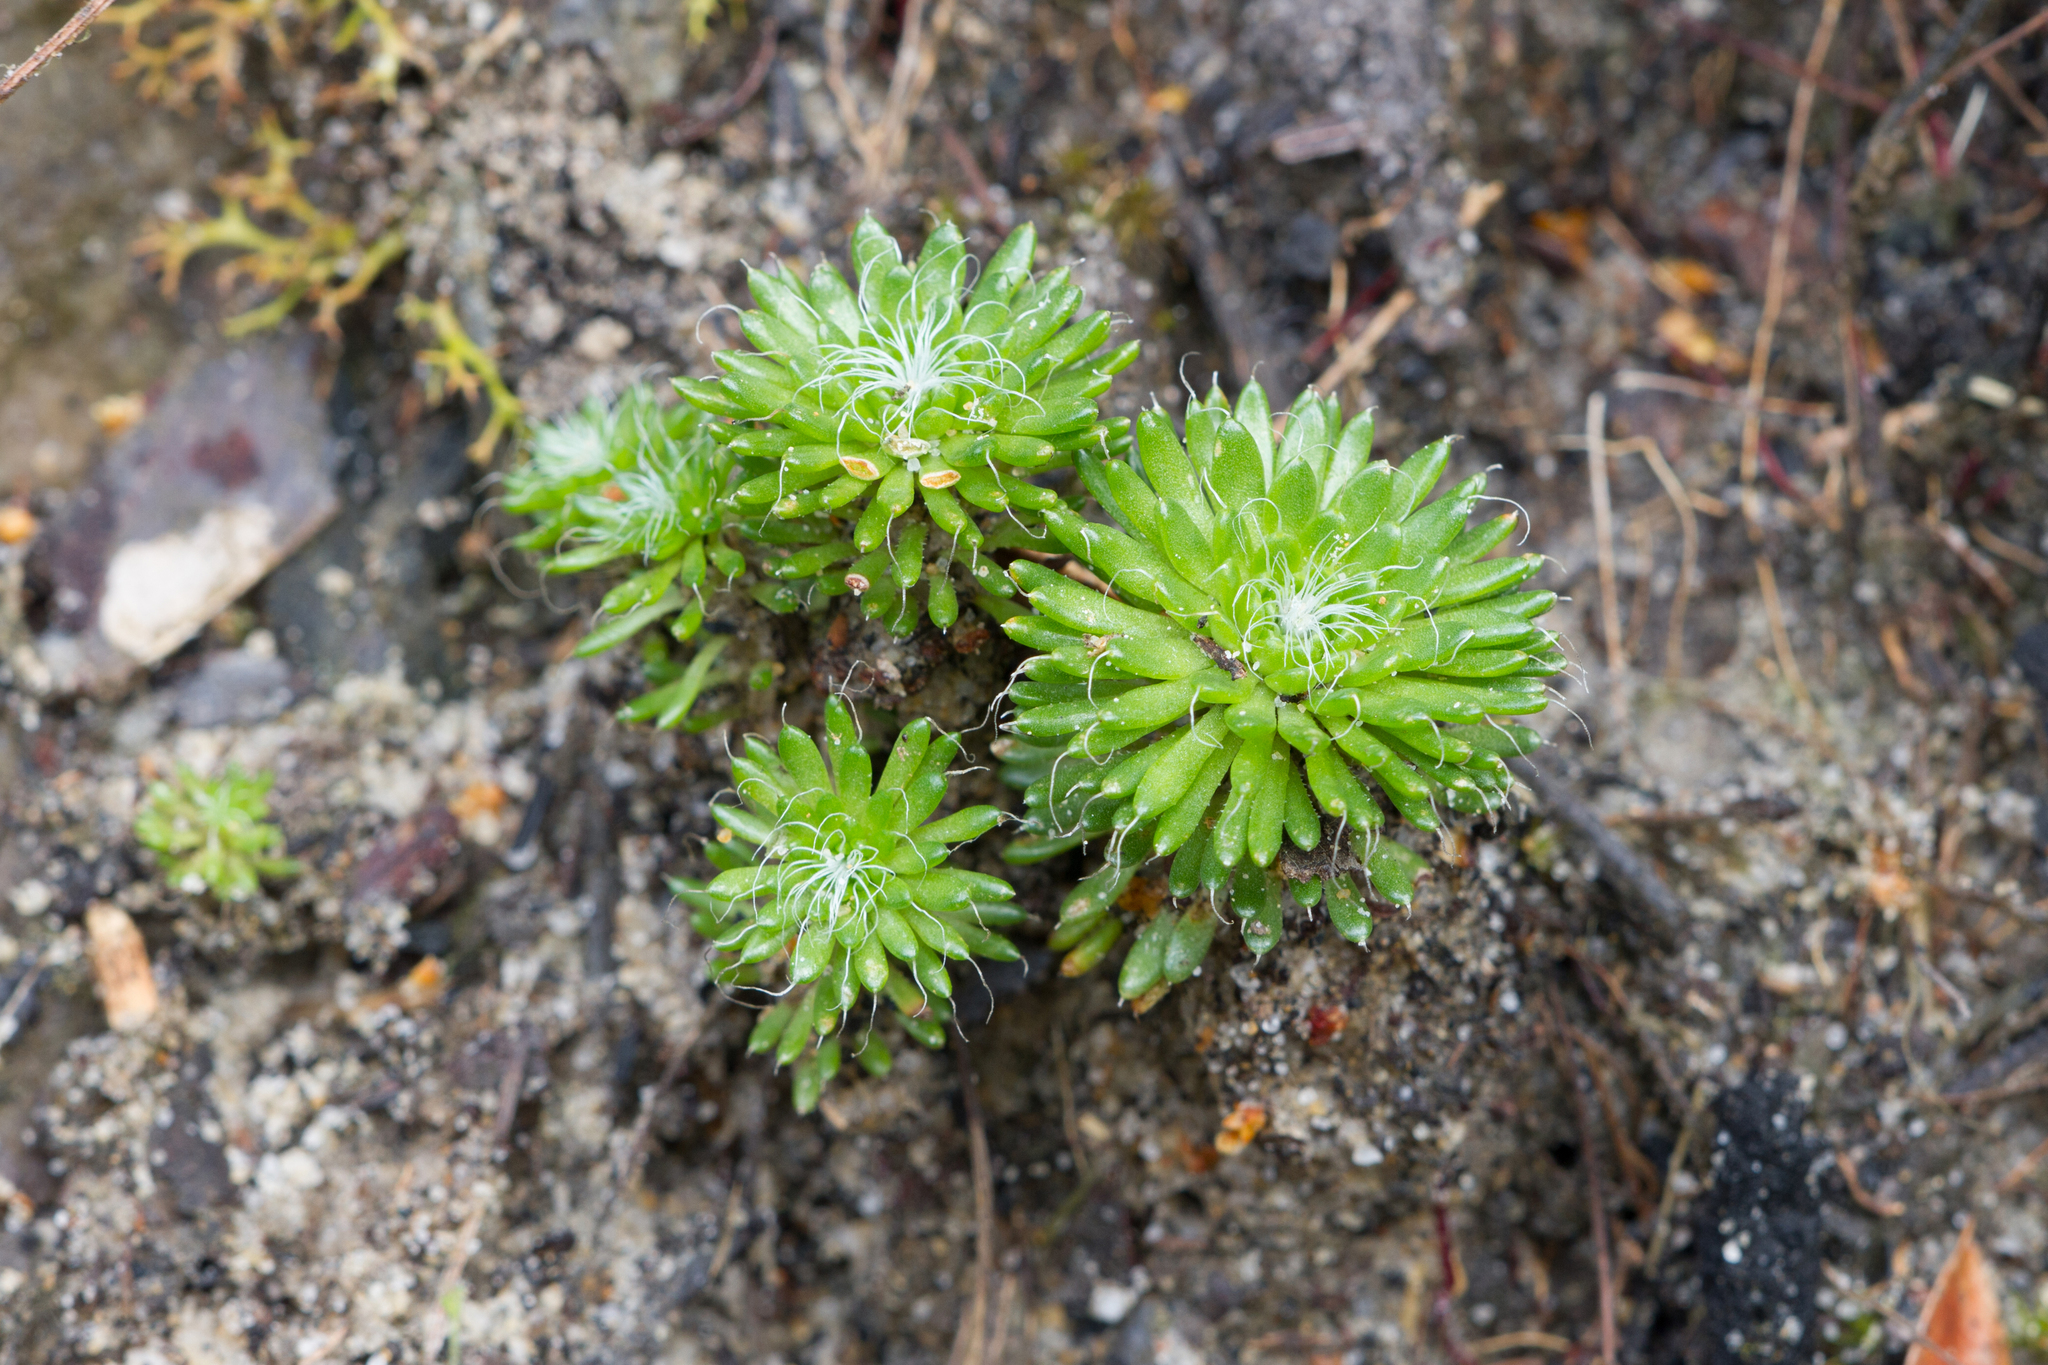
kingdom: Plantae
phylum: Tracheophyta
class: Magnoliopsida
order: Asterales
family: Stylidiaceae
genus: Stylidium
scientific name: Stylidium soboliferum
